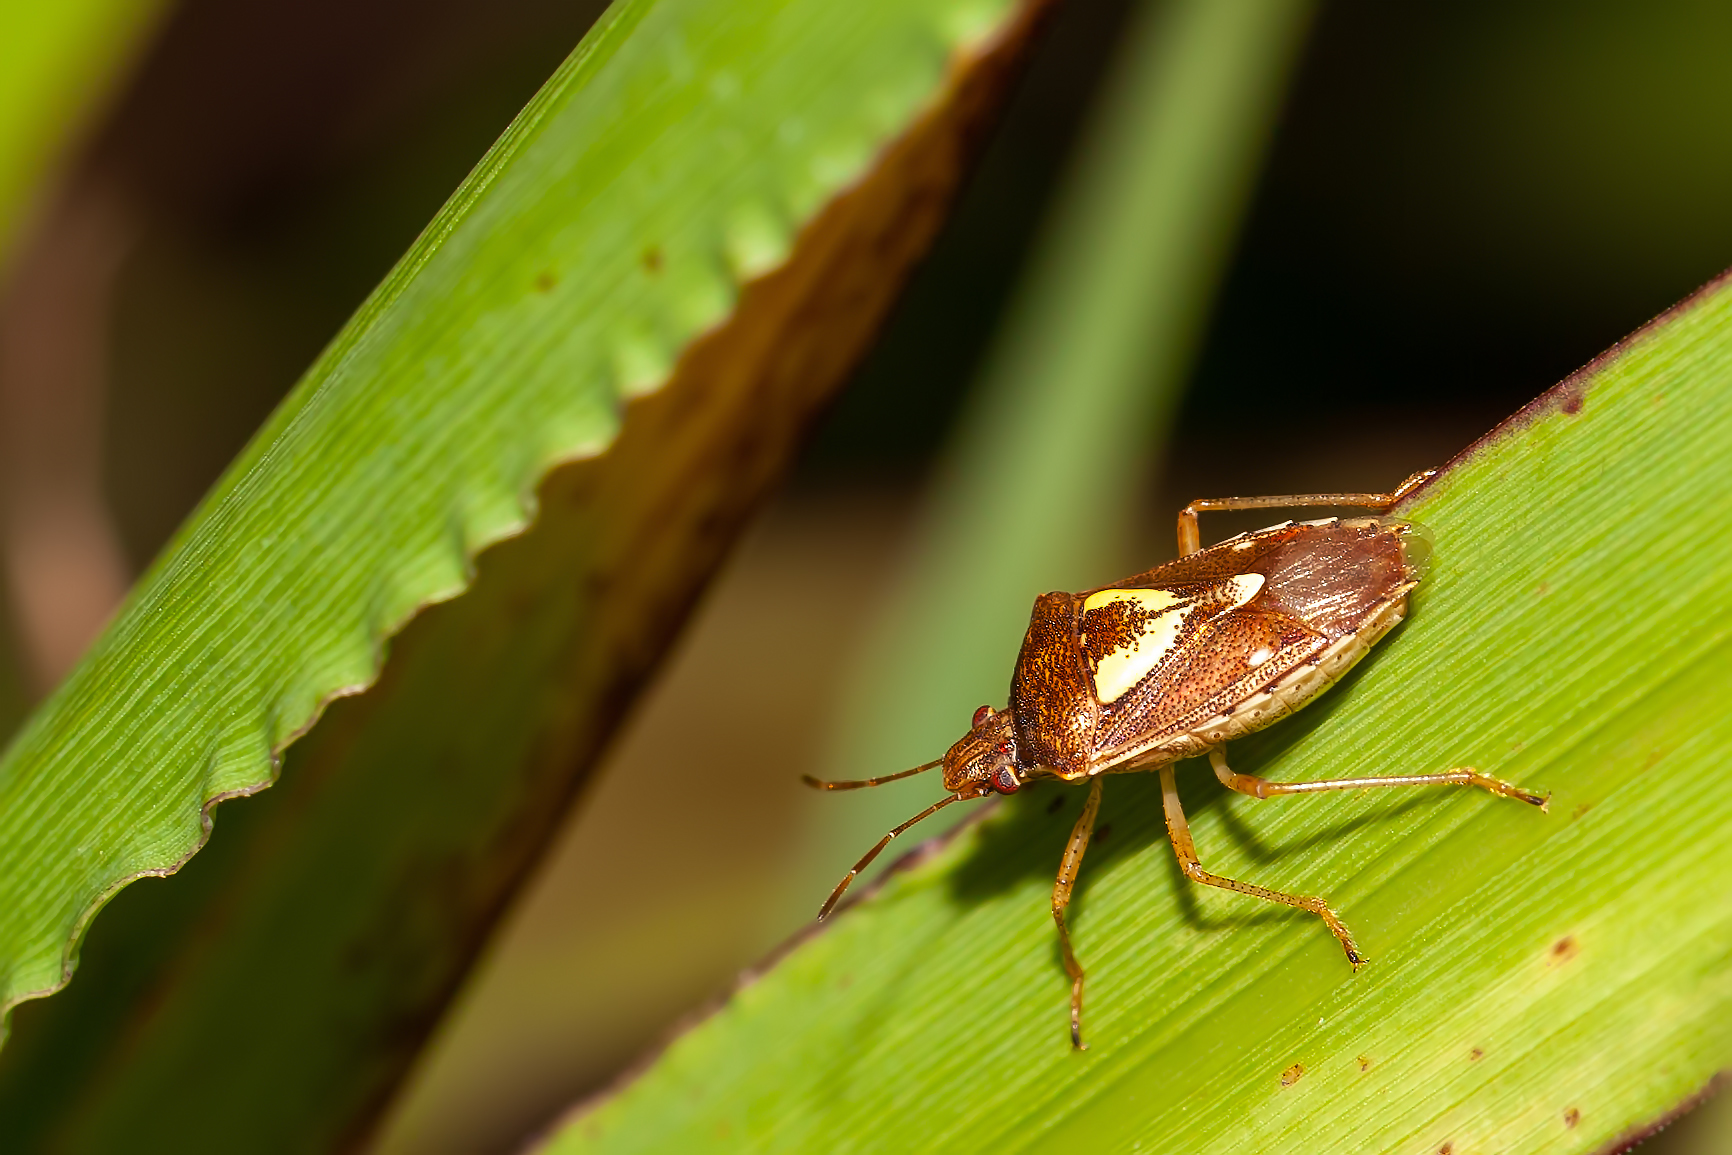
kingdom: Animalia
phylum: Arthropoda
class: Insecta
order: Hemiptera
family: Pentatomidae
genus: Oebalus
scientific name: Oebalus insularis
